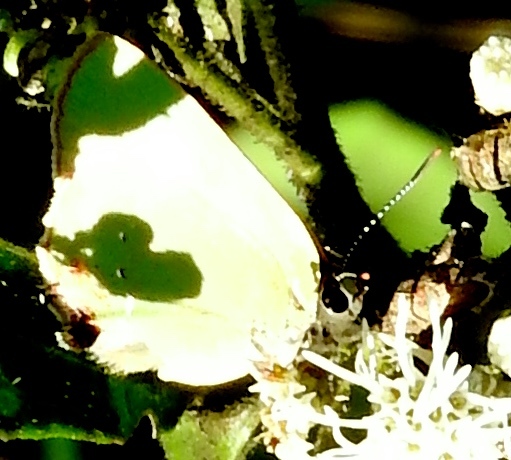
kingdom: Animalia
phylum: Arthropoda
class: Insecta
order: Lepidoptera
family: Lycaenidae
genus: Chlorostrymon
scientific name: Chlorostrymon simaethis
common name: Silver-banded hairstreak
